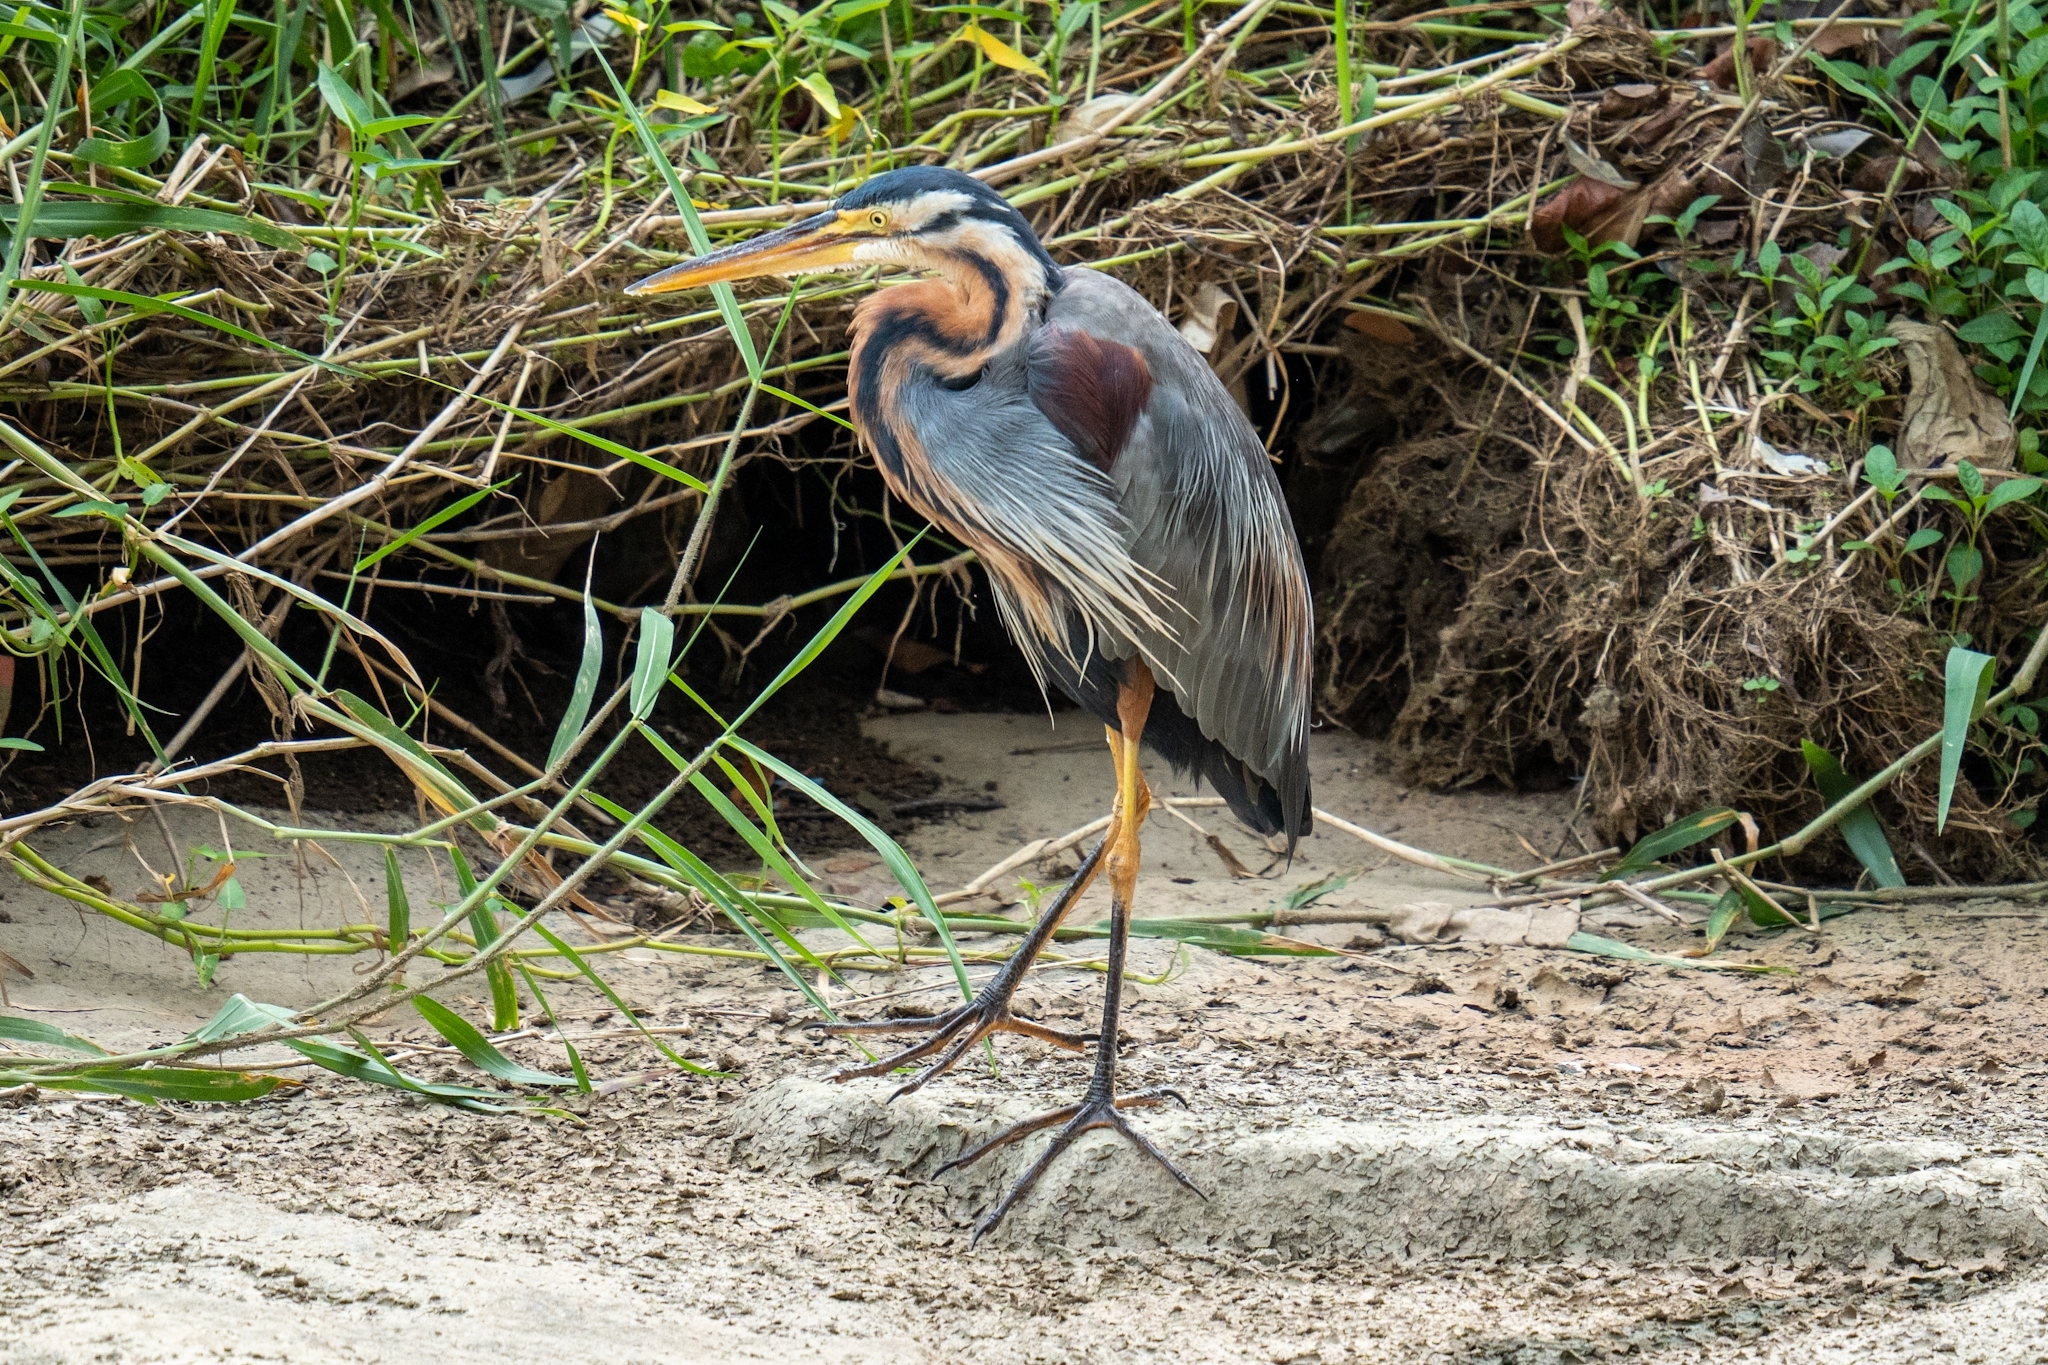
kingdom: Animalia
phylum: Chordata
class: Aves
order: Pelecaniformes
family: Ardeidae
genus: Ardea
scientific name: Ardea purpurea
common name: Purple heron
